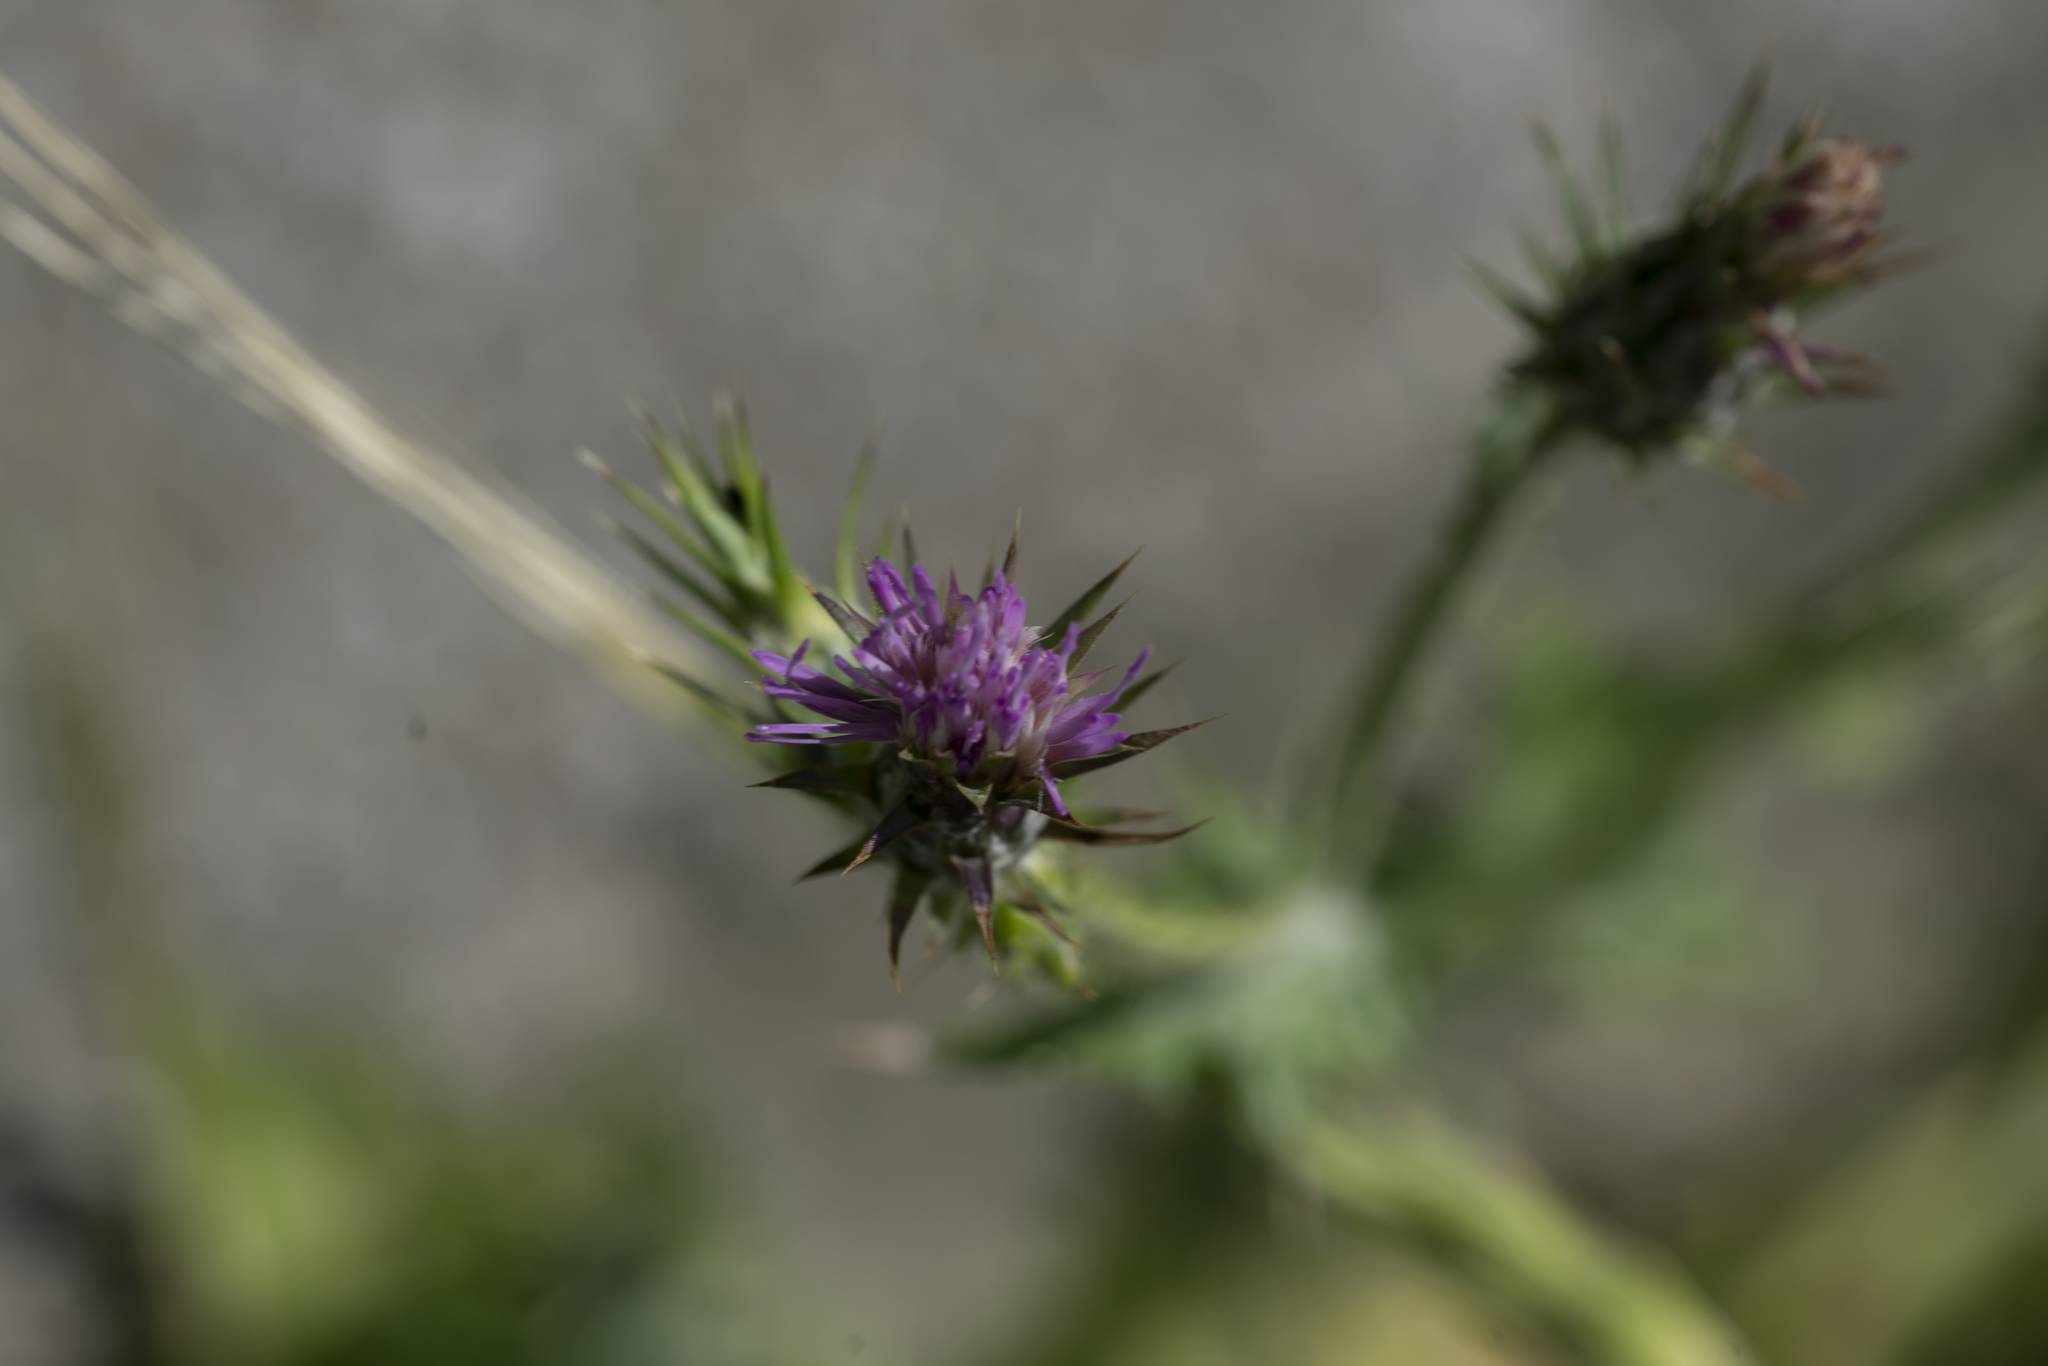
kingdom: Plantae
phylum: Tracheophyta
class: Magnoliopsida
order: Asterales
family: Asteraceae
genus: Carduus
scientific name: Carduus pycnocephalus
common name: Plymouth thistle
